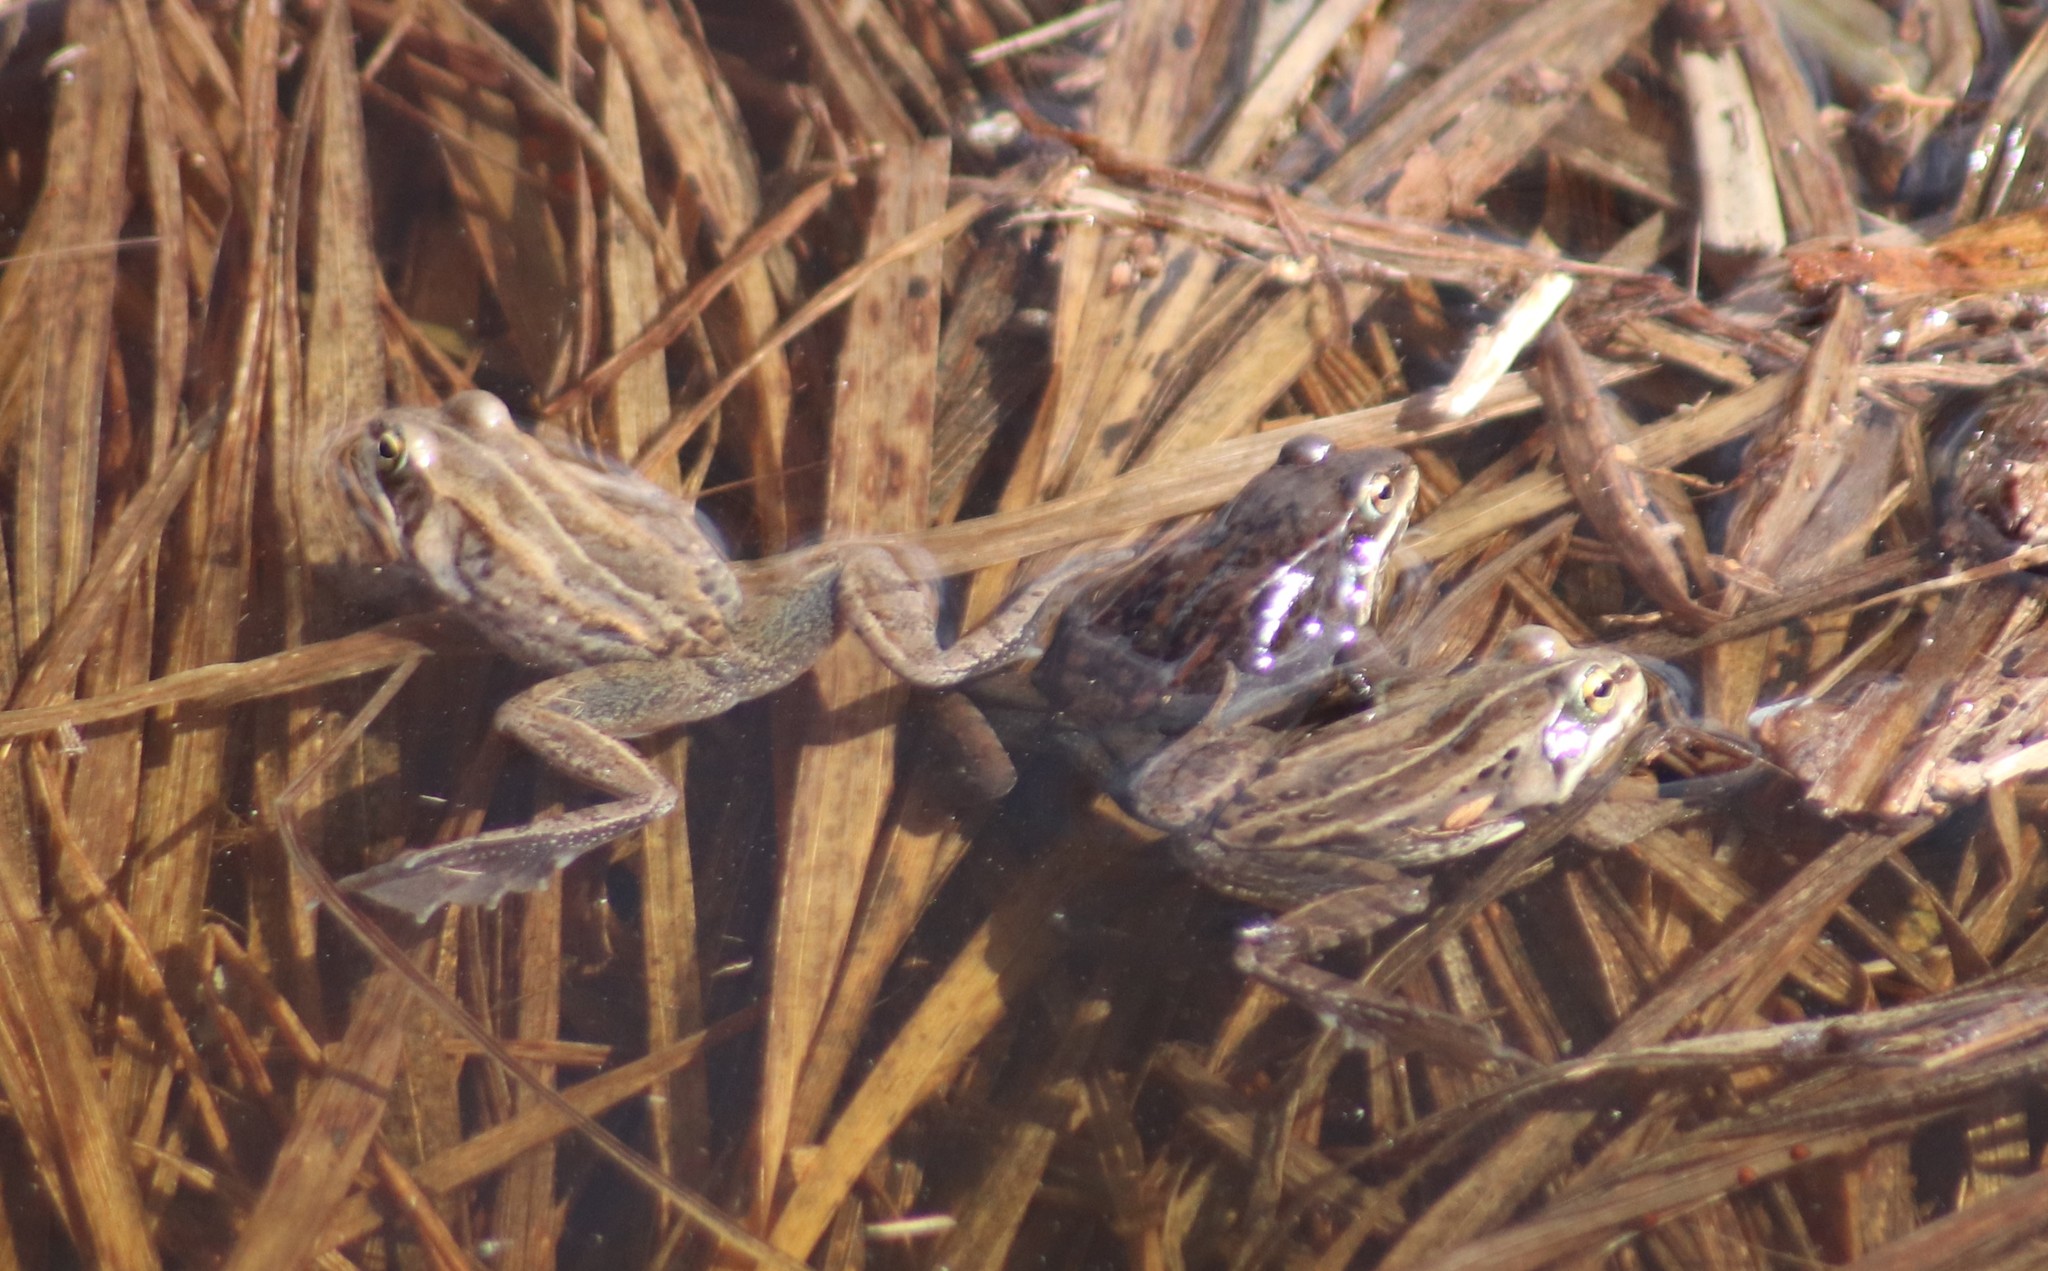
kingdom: Animalia
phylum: Chordata
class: Amphibia
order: Anura
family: Ranidae
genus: Lithobates
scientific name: Lithobates sylvaticus
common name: Wood frog
